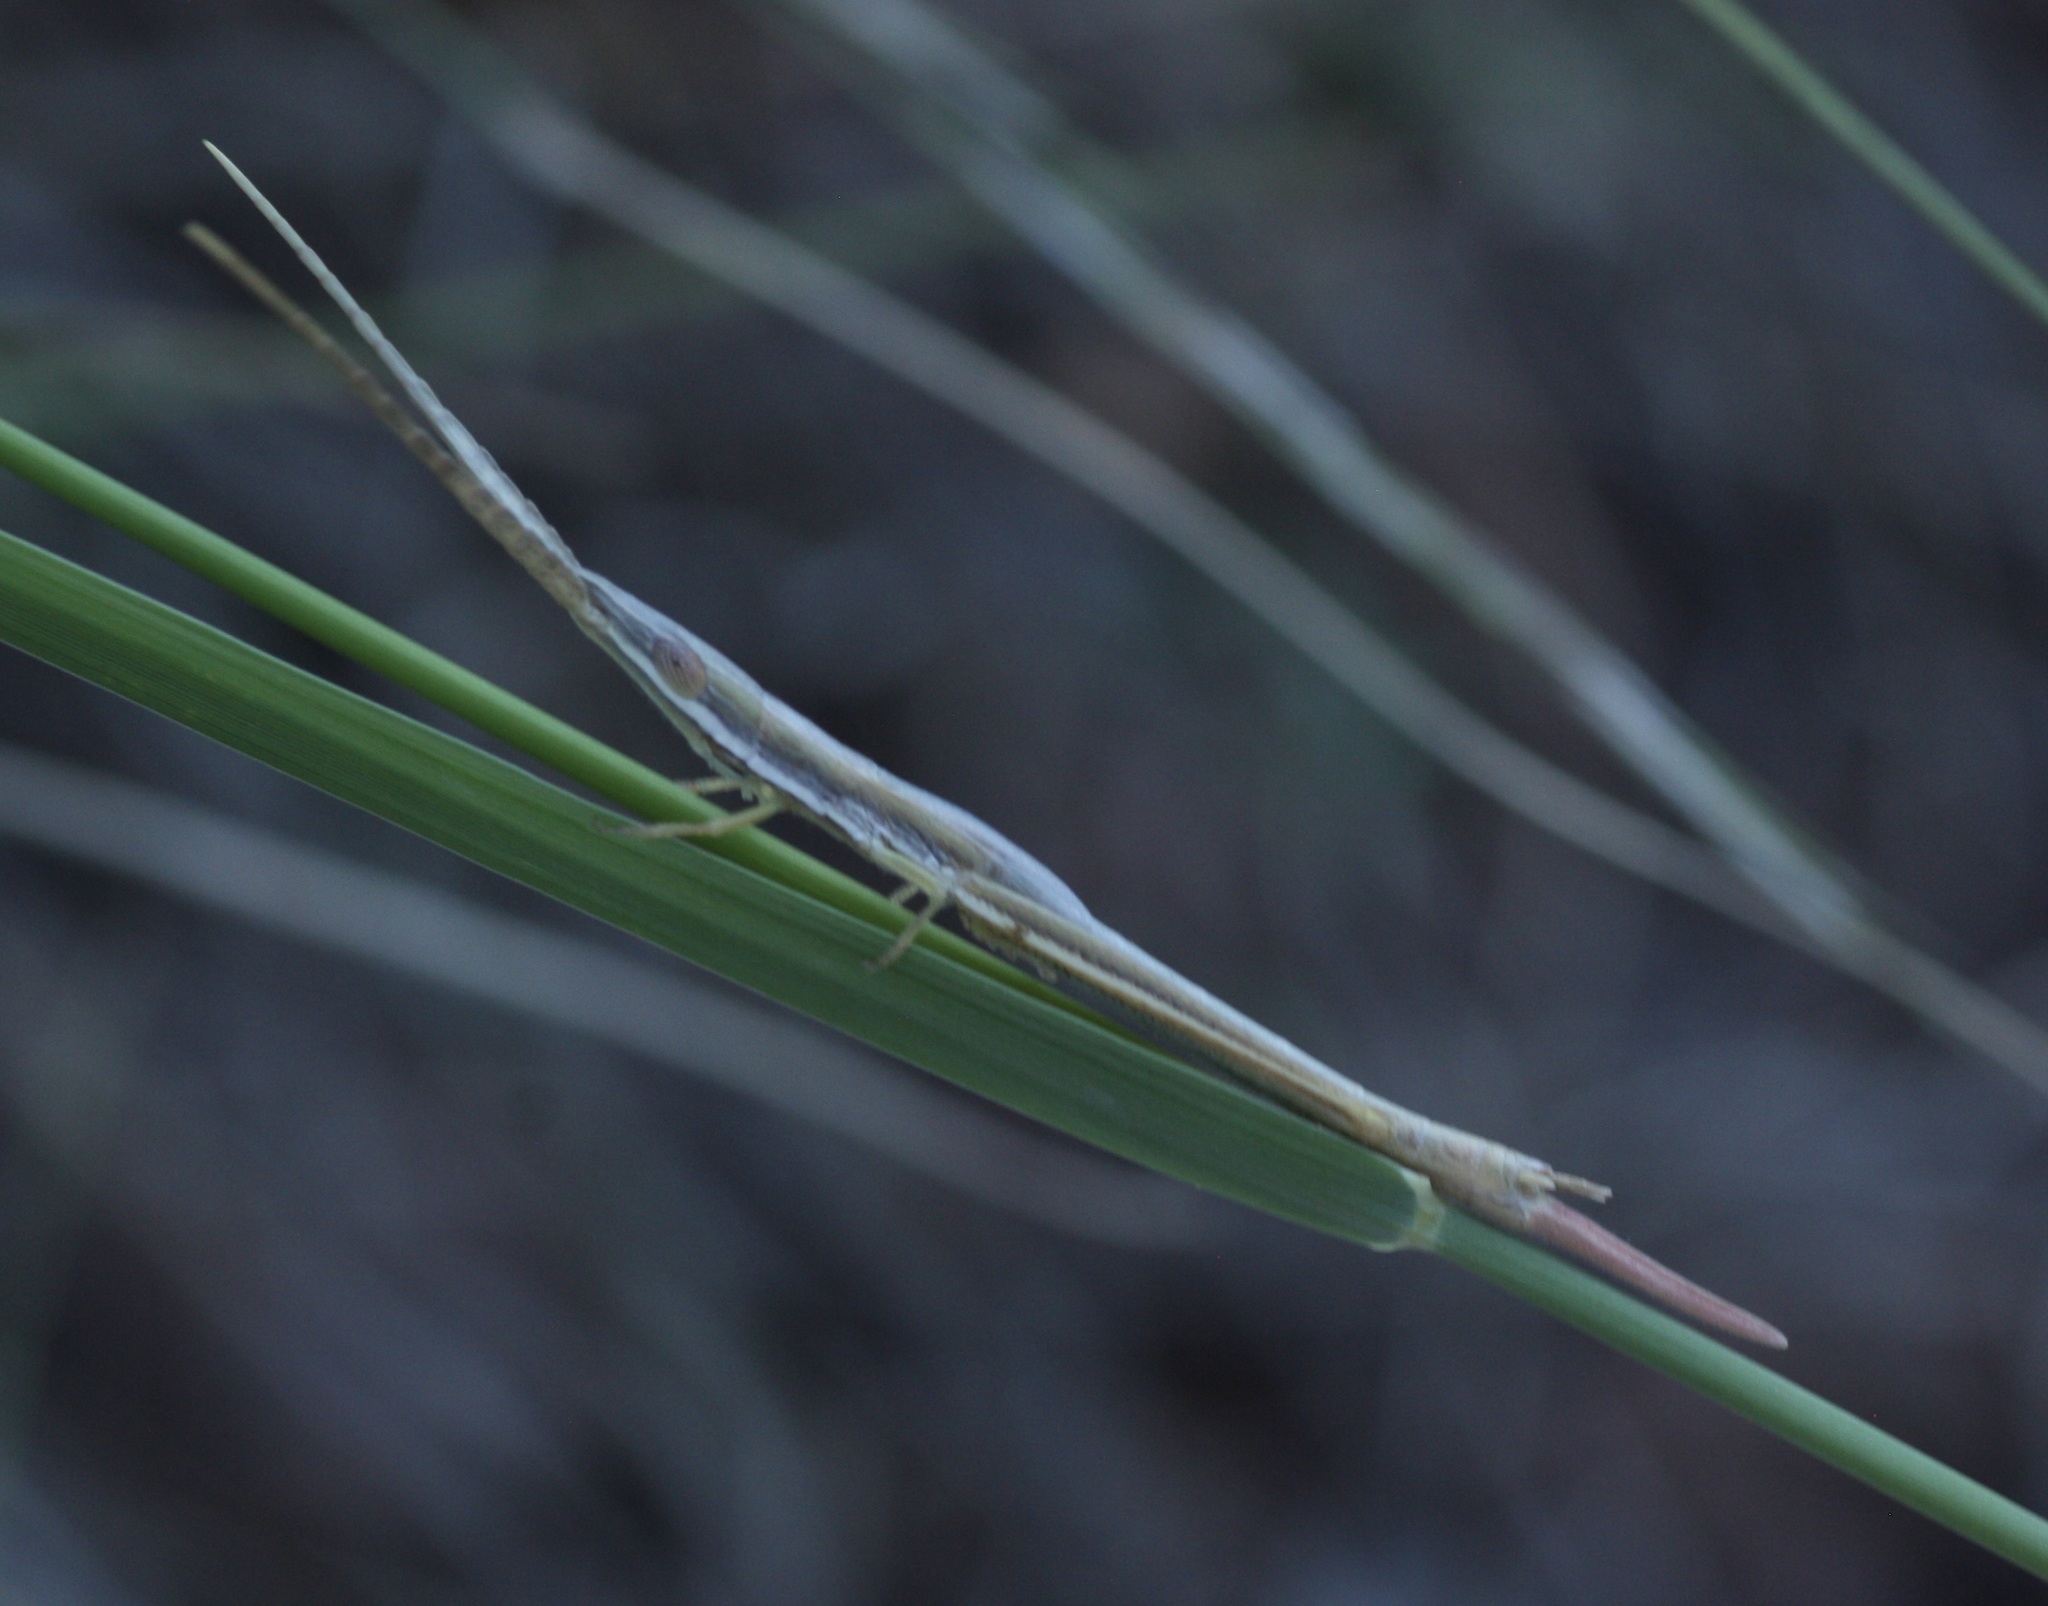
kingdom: Animalia
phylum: Arthropoda
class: Insecta
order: Orthoptera
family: Acrididae
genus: Prorocorypha
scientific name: Prorocorypha snowi
